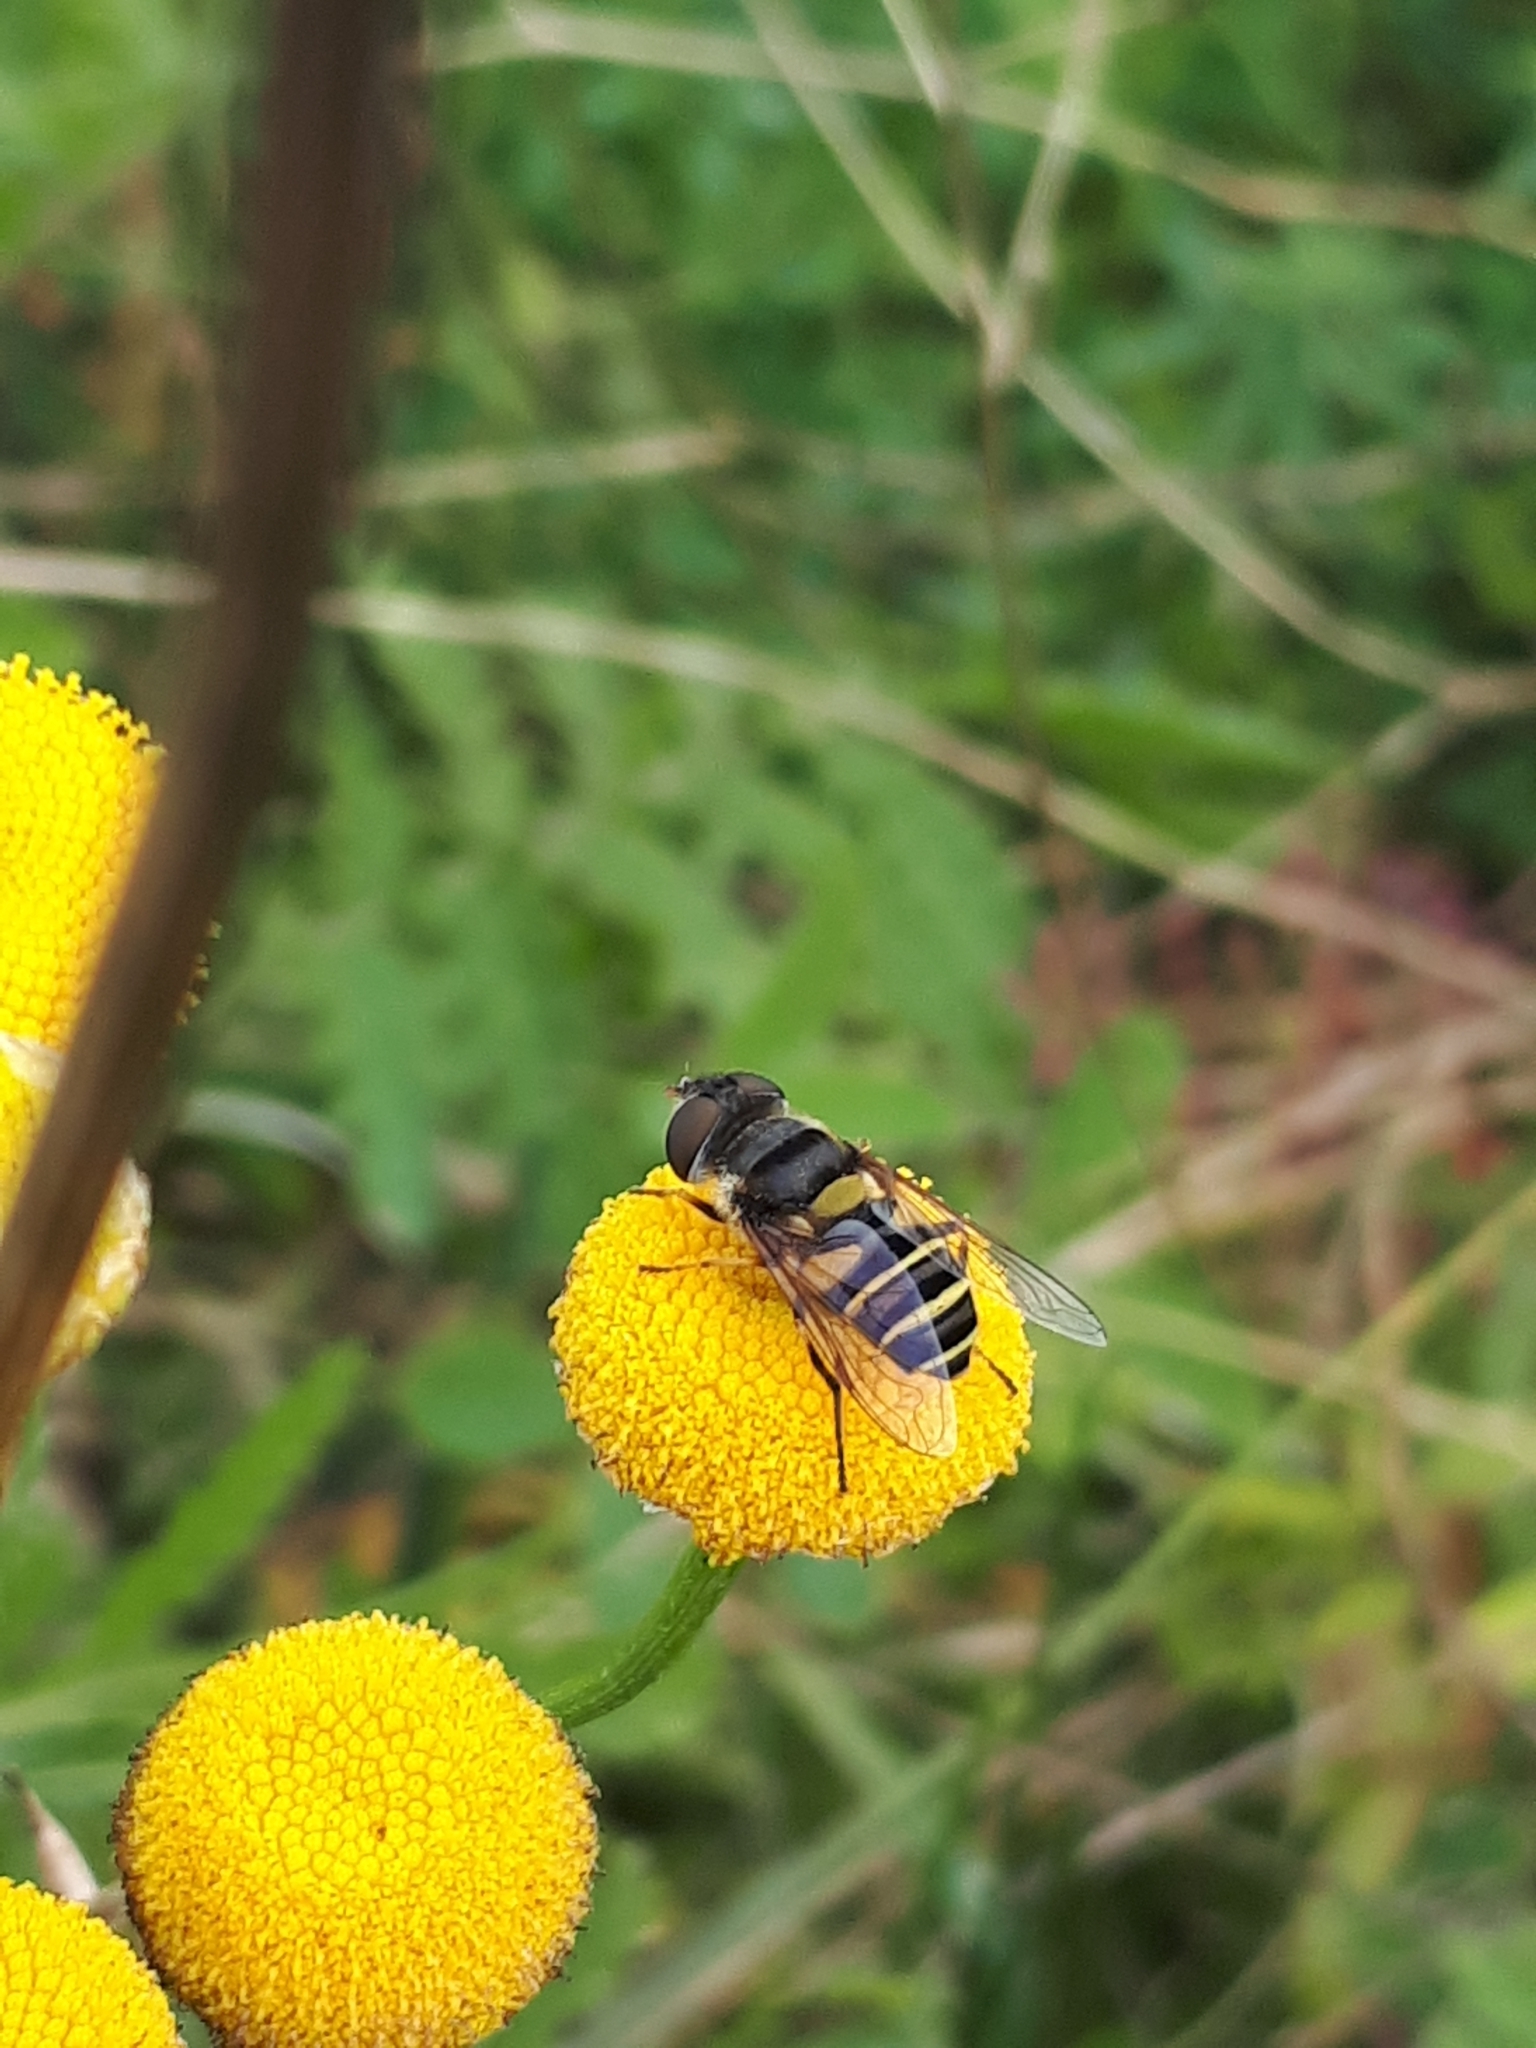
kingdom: Animalia
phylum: Arthropoda
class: Insecta
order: Diptera
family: Syrphidae
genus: Eristalis
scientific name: Eristalis transversa
